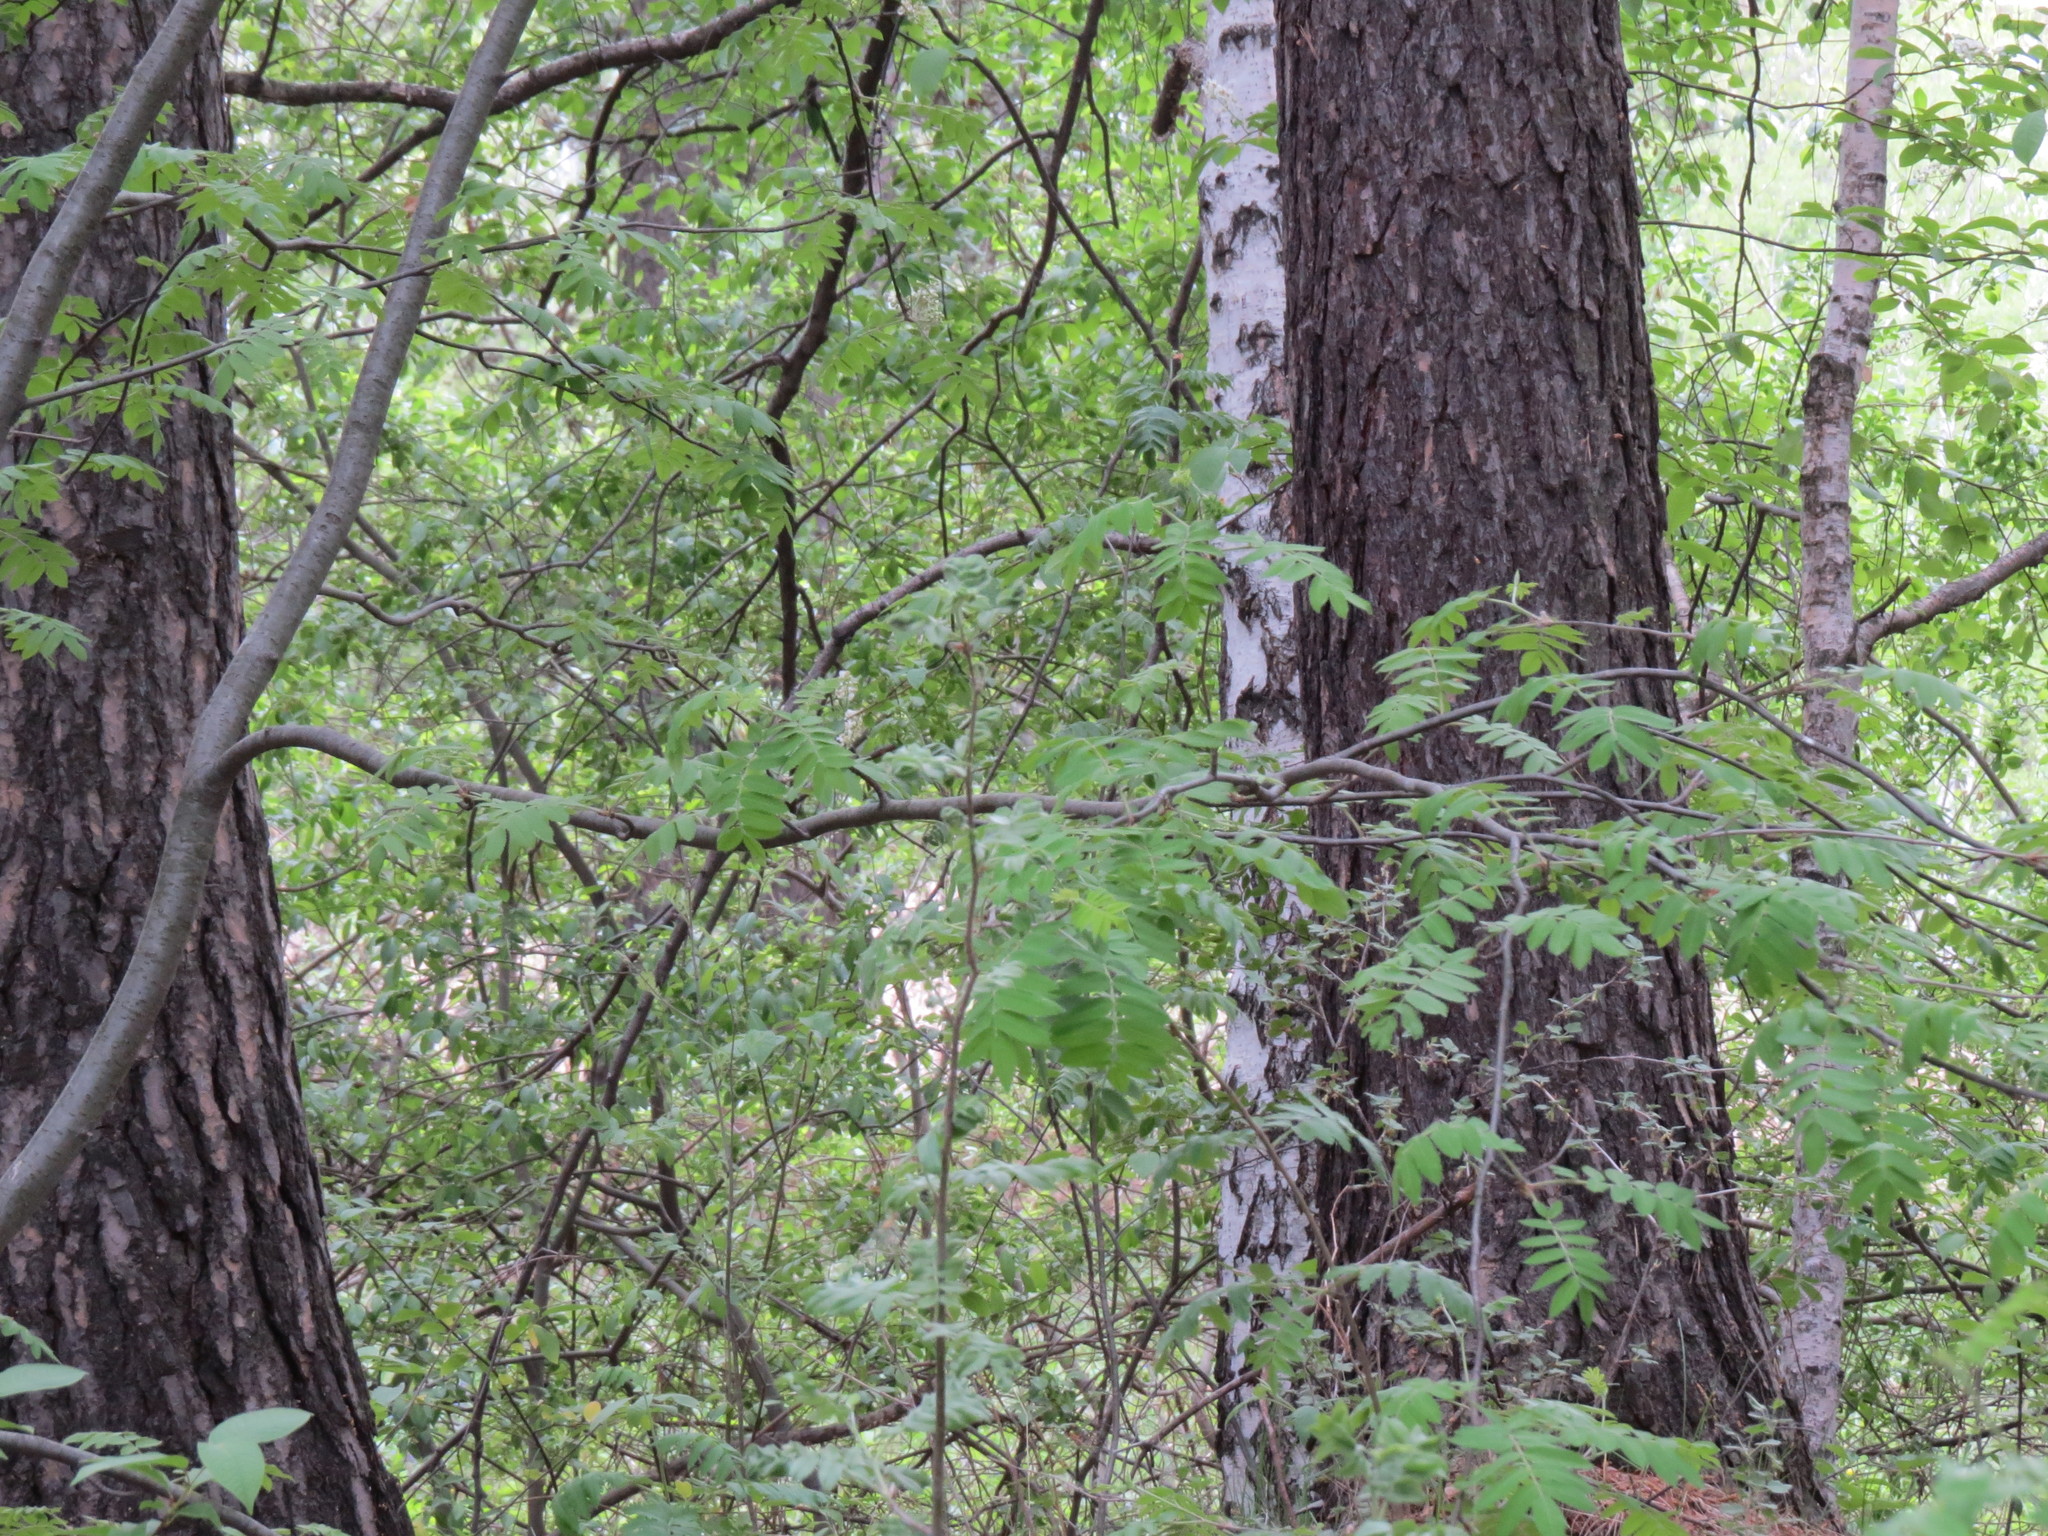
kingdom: Animalia
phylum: Chordata
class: Aves
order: Passeriformes
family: Muscicapidae
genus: Ficedula
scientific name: Ficedula hypoleuca
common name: European pied flycatcher
